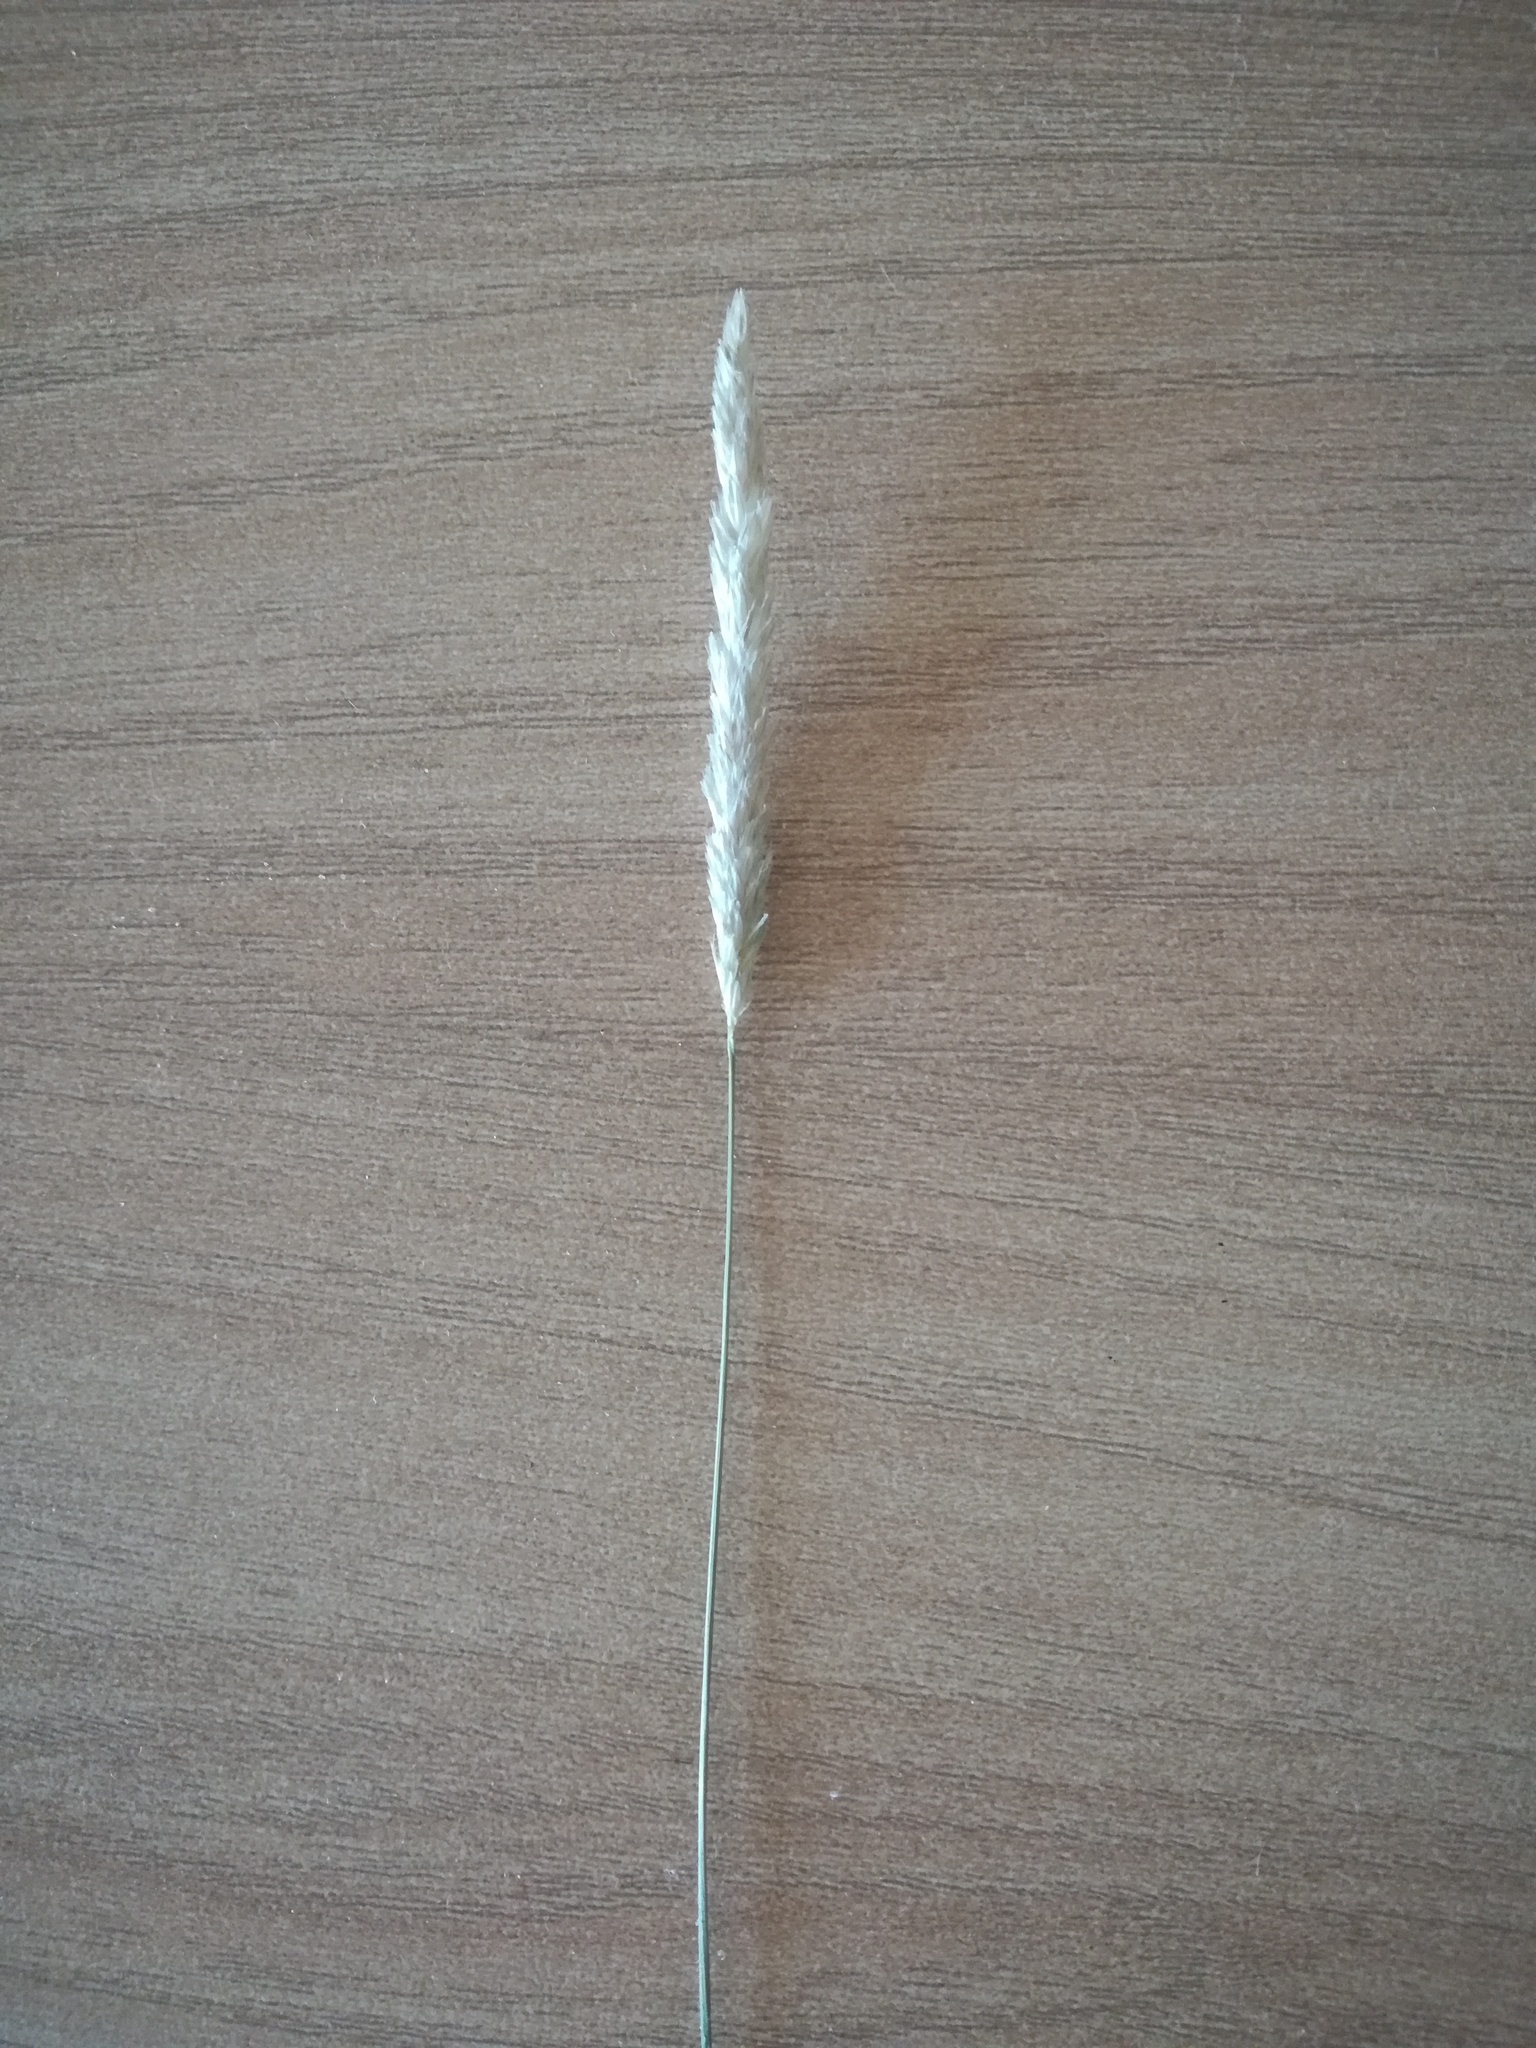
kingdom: Plantae
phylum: Tracheophyta
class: Liliopsida
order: Poales
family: Poaceae
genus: Alopecurus
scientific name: Alopecurus pratensis
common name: Meadow foxtail
